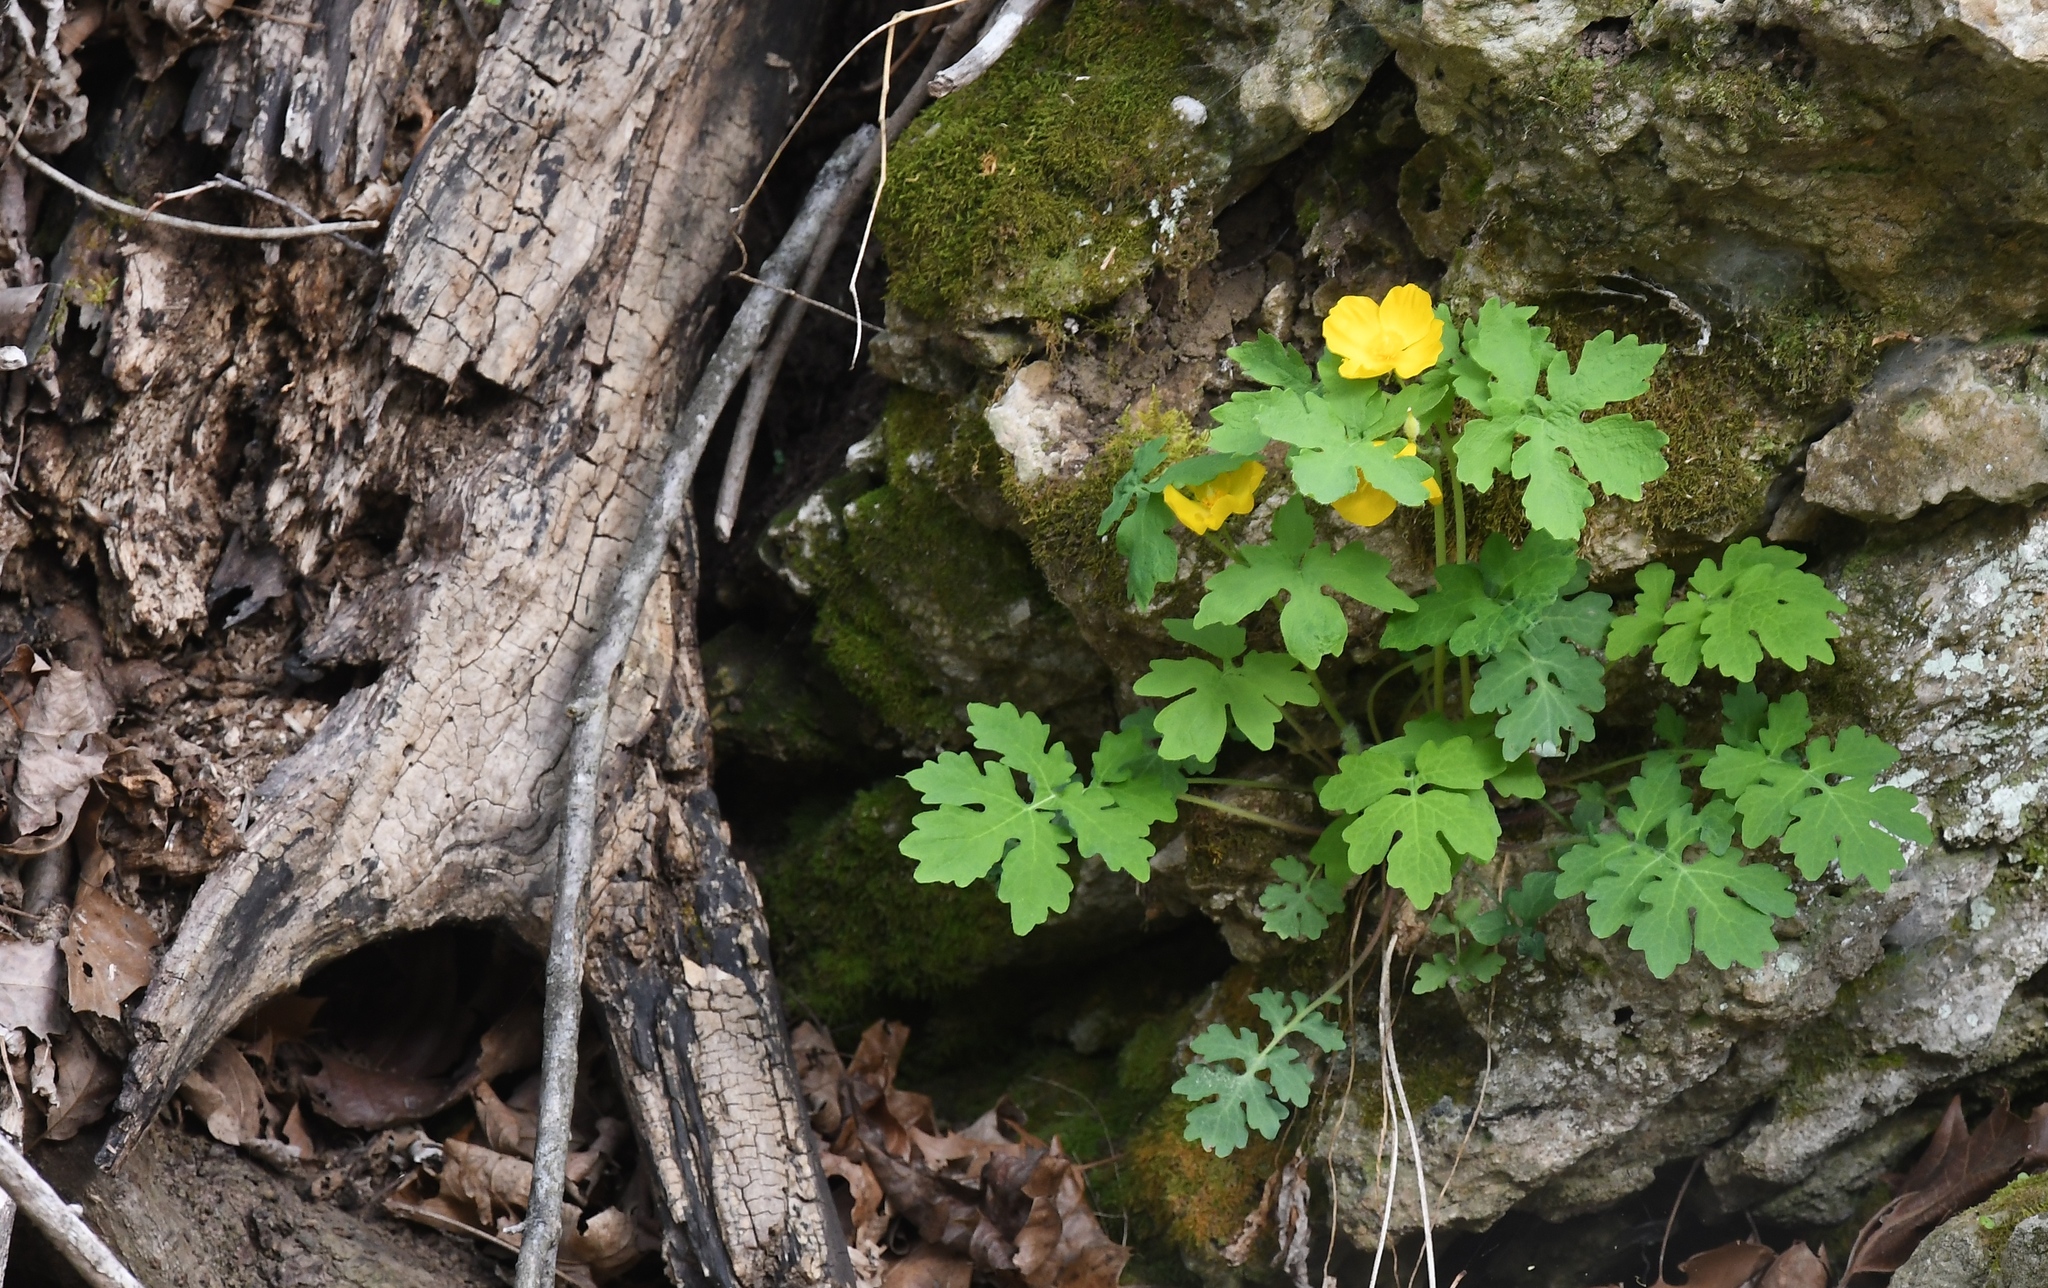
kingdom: Plantae
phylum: Tracheophyta
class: Magnoliopsida
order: Ranunculales
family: Papaveraceae
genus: Stylophorum
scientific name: Stylophorum diphyllum
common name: Celandine poppy
